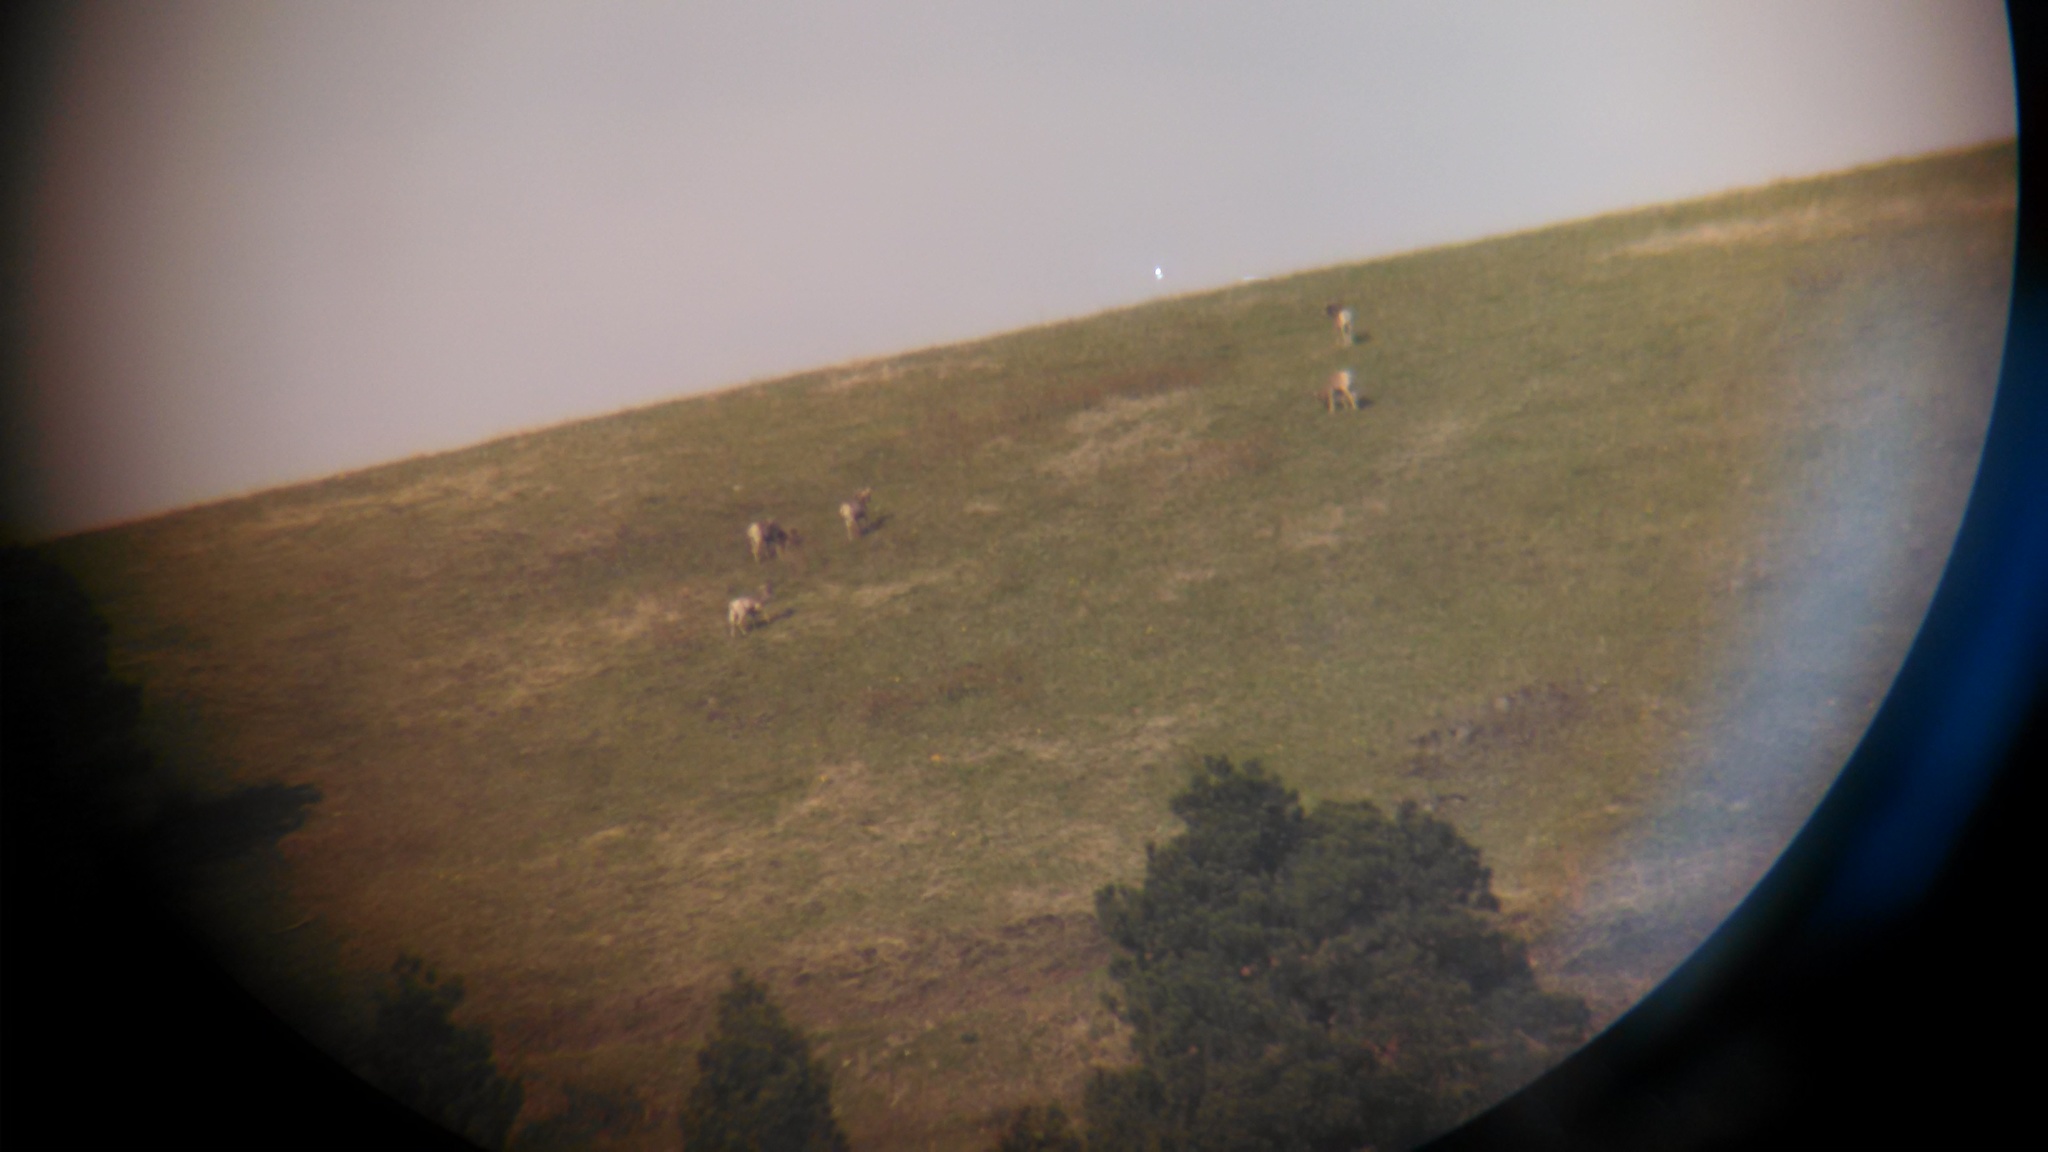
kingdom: Animalia
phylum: Chordata
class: Mammalia
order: Artiodactyla
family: Bovidae
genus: Ovis
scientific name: Ovis canadensis
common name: Bighorn sheep
